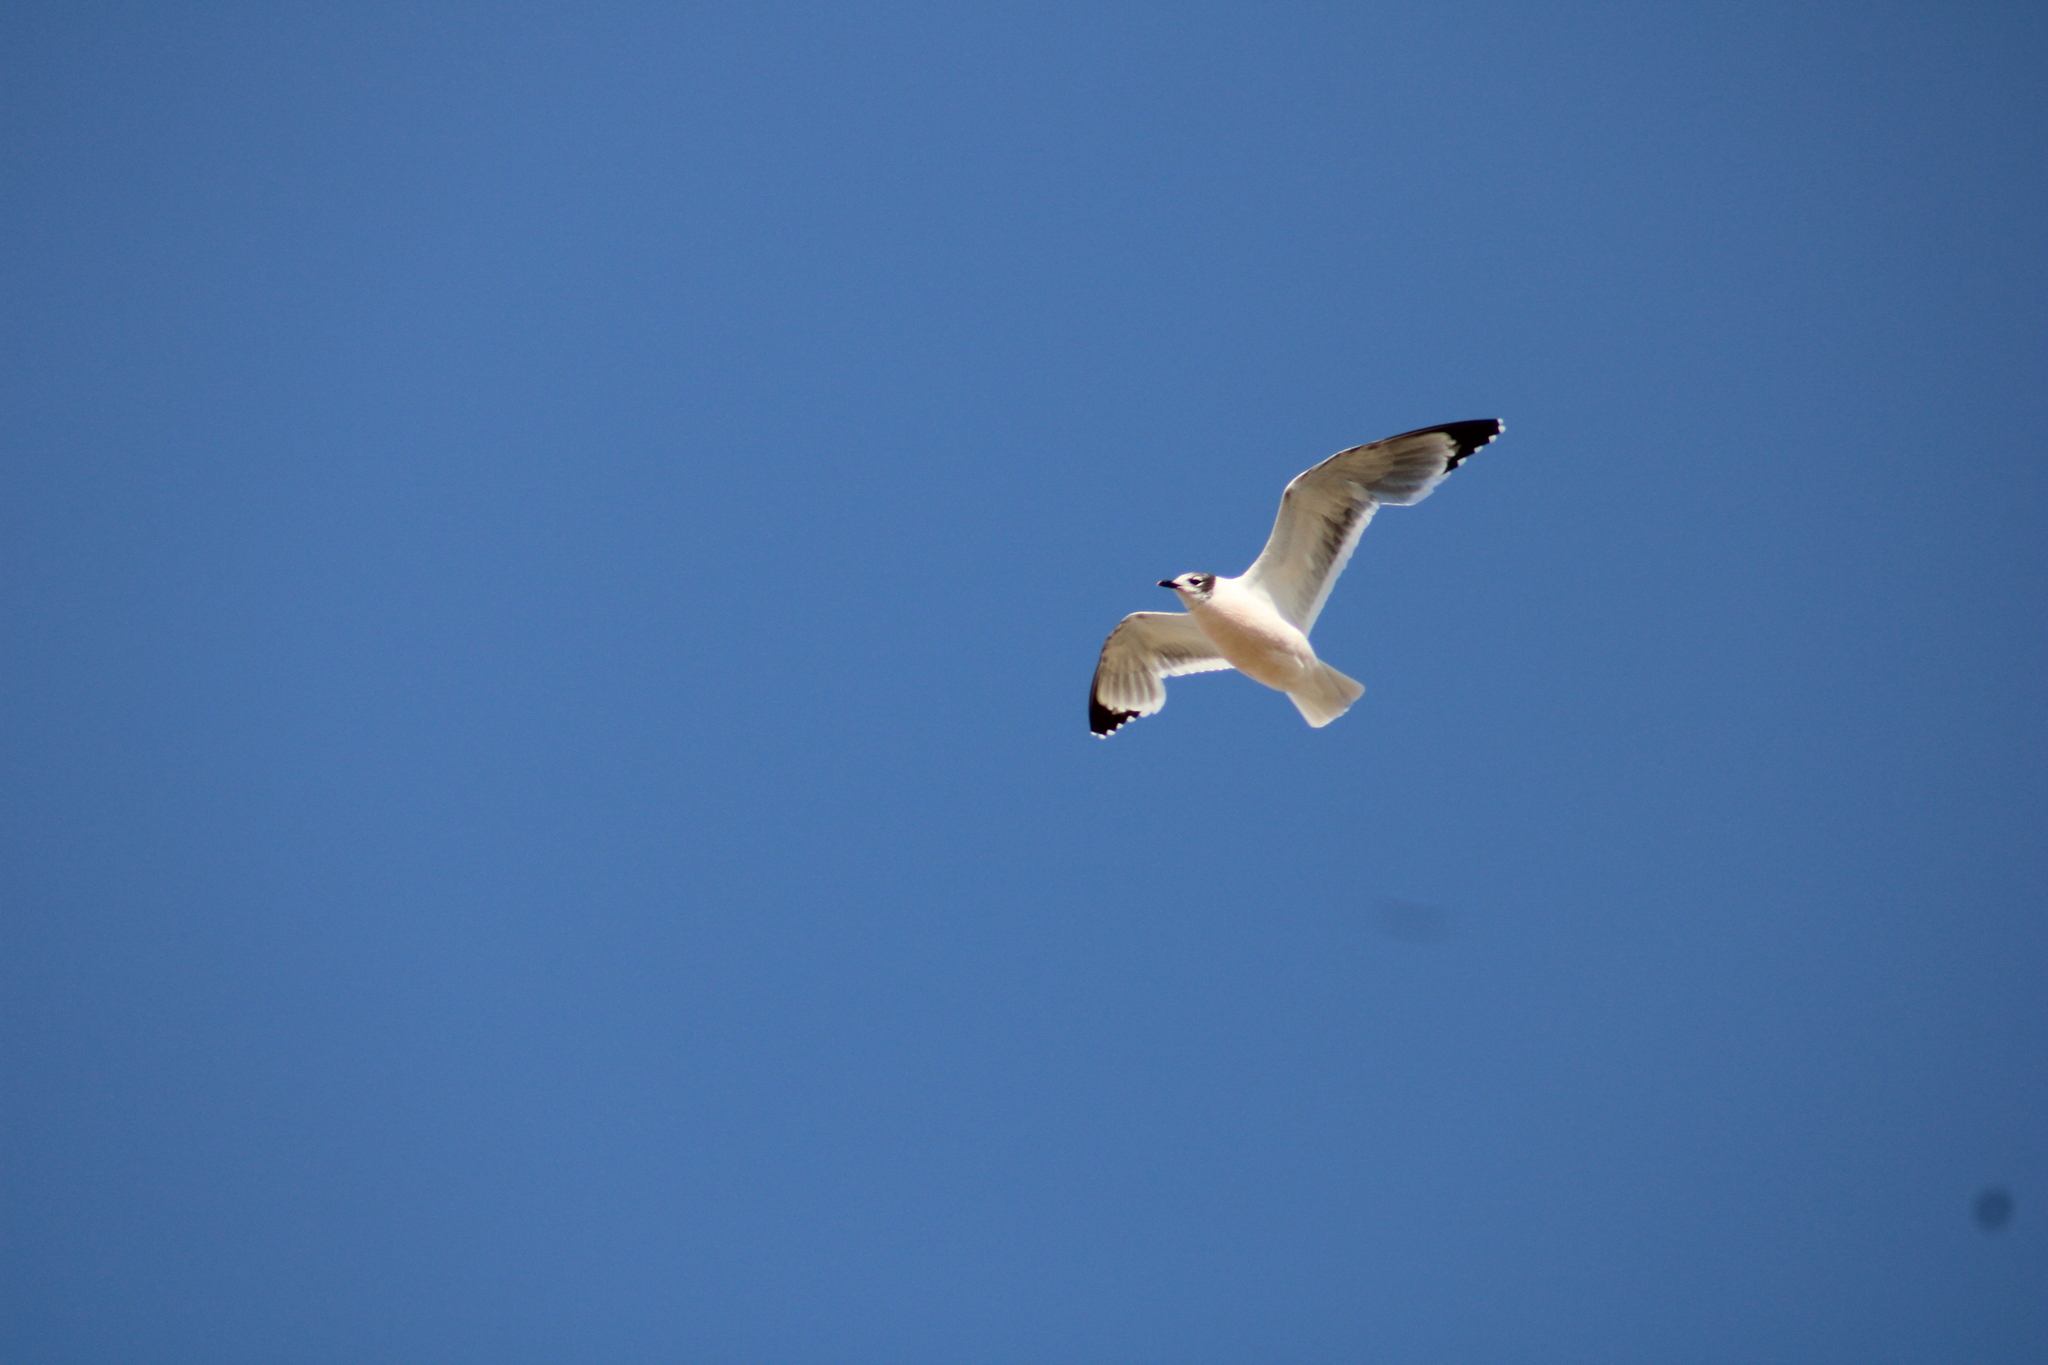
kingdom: Animalia
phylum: Chordata
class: Aves
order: Charadriiformes
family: Laridae
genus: Leucophaeus
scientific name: Leucophaeus pipixcan
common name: Franklin's gull
